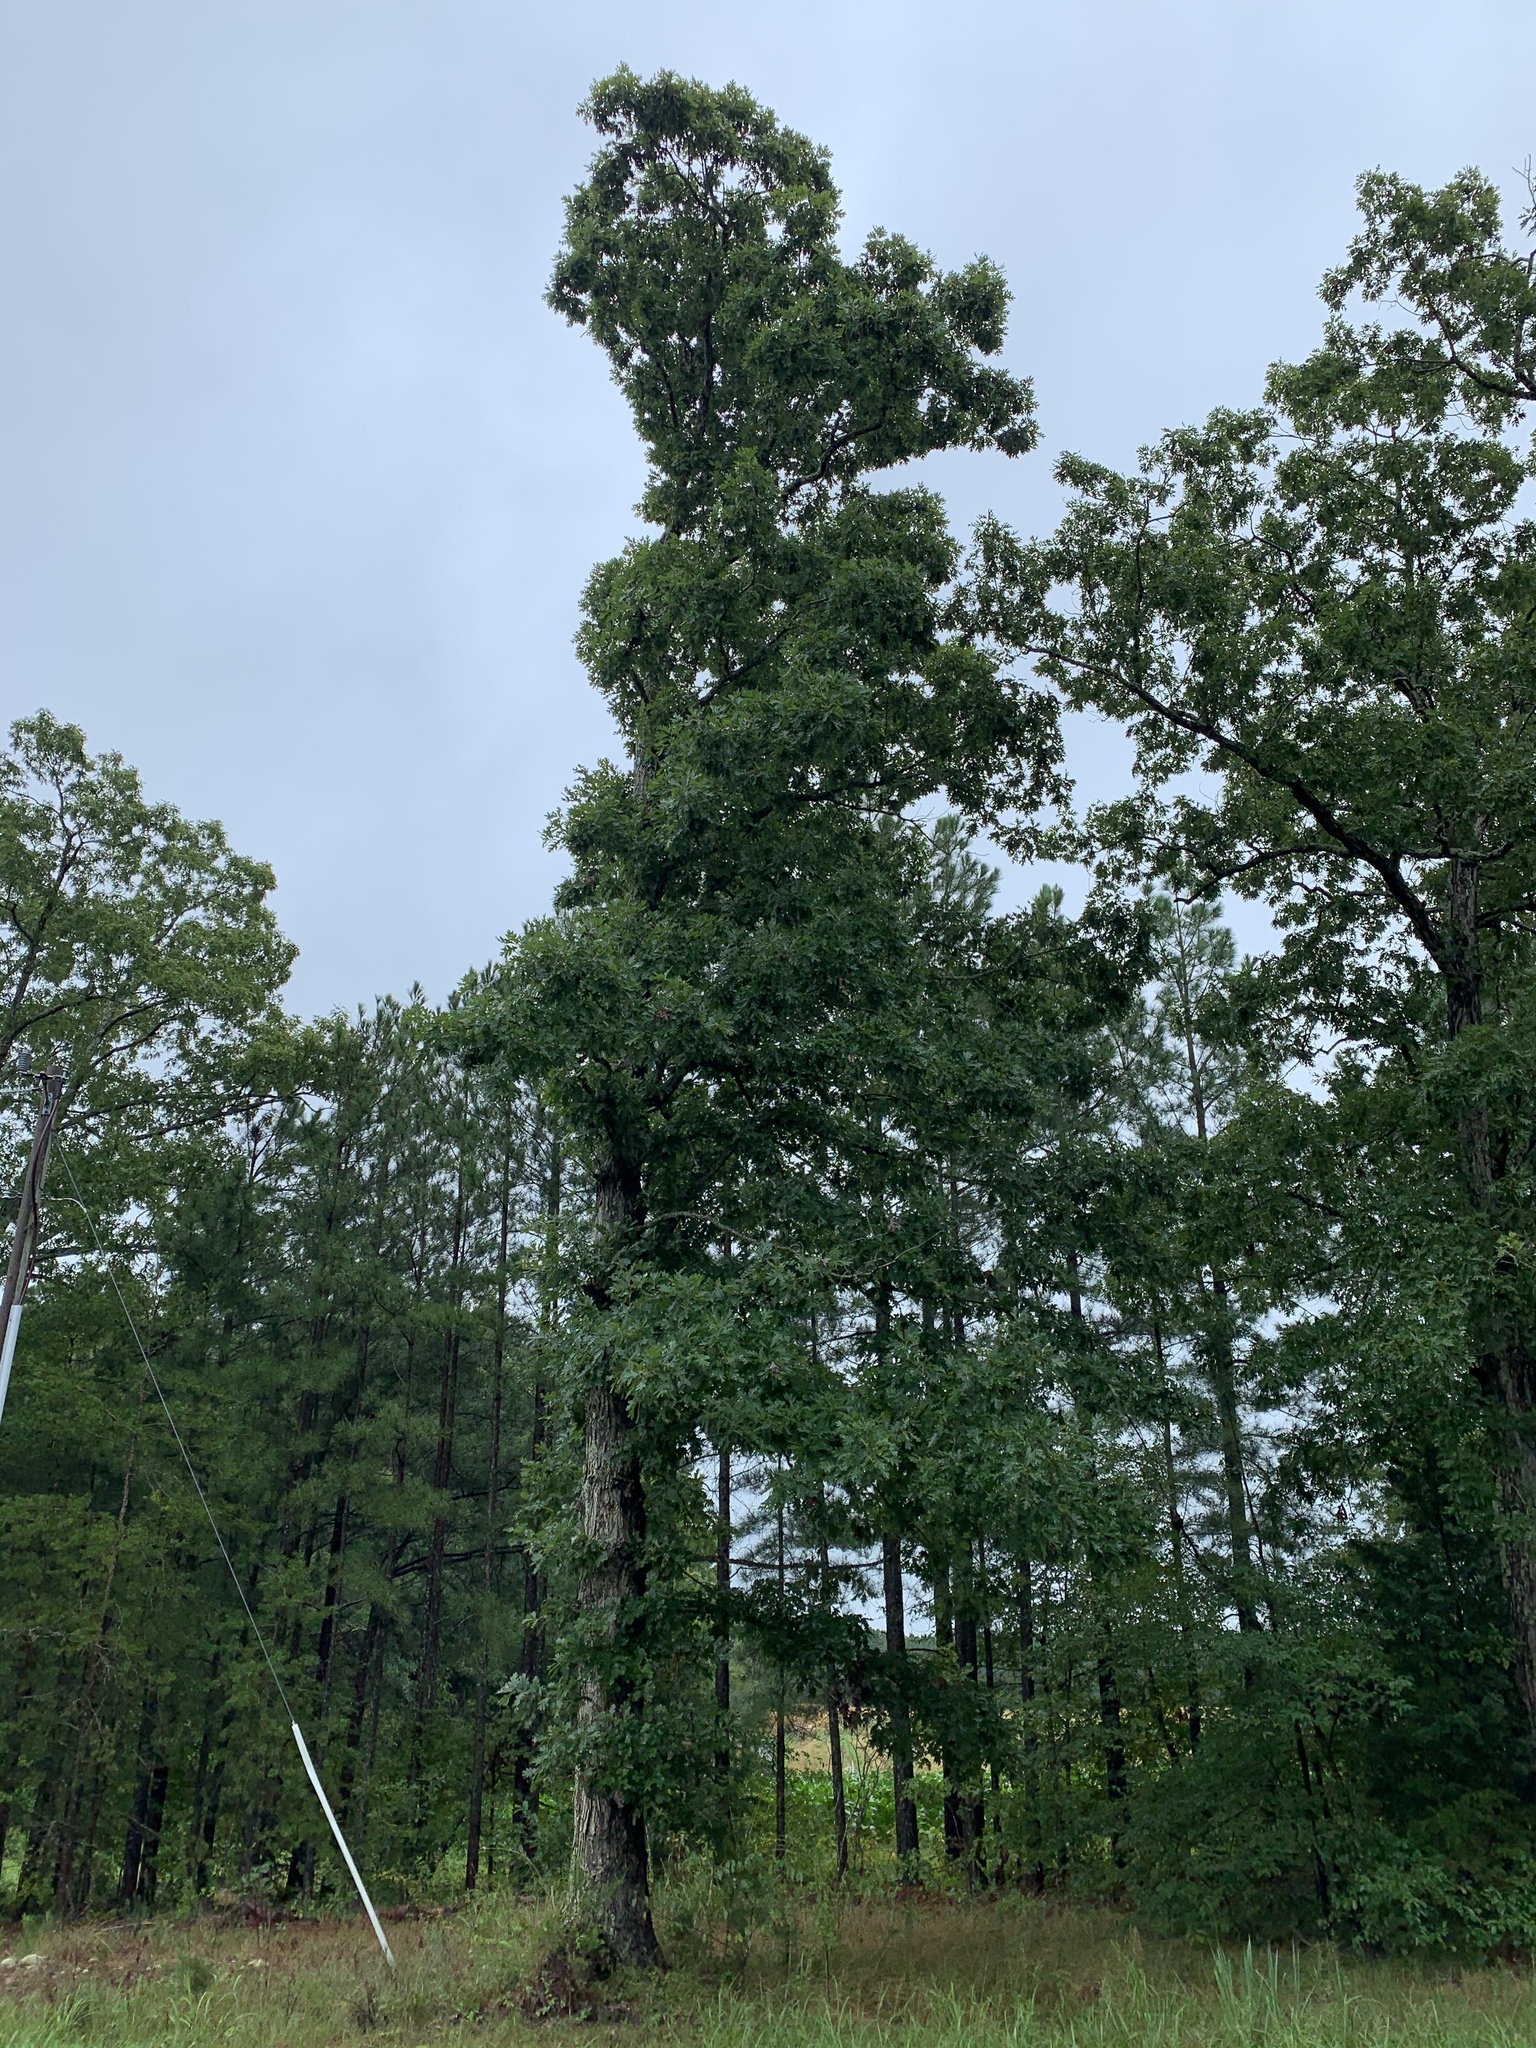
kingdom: Plantae
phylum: Tracheophyta
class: Magnoliopsida
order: Fagales
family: Fagaceae
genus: Quercus
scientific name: Quercus alba
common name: White oak
